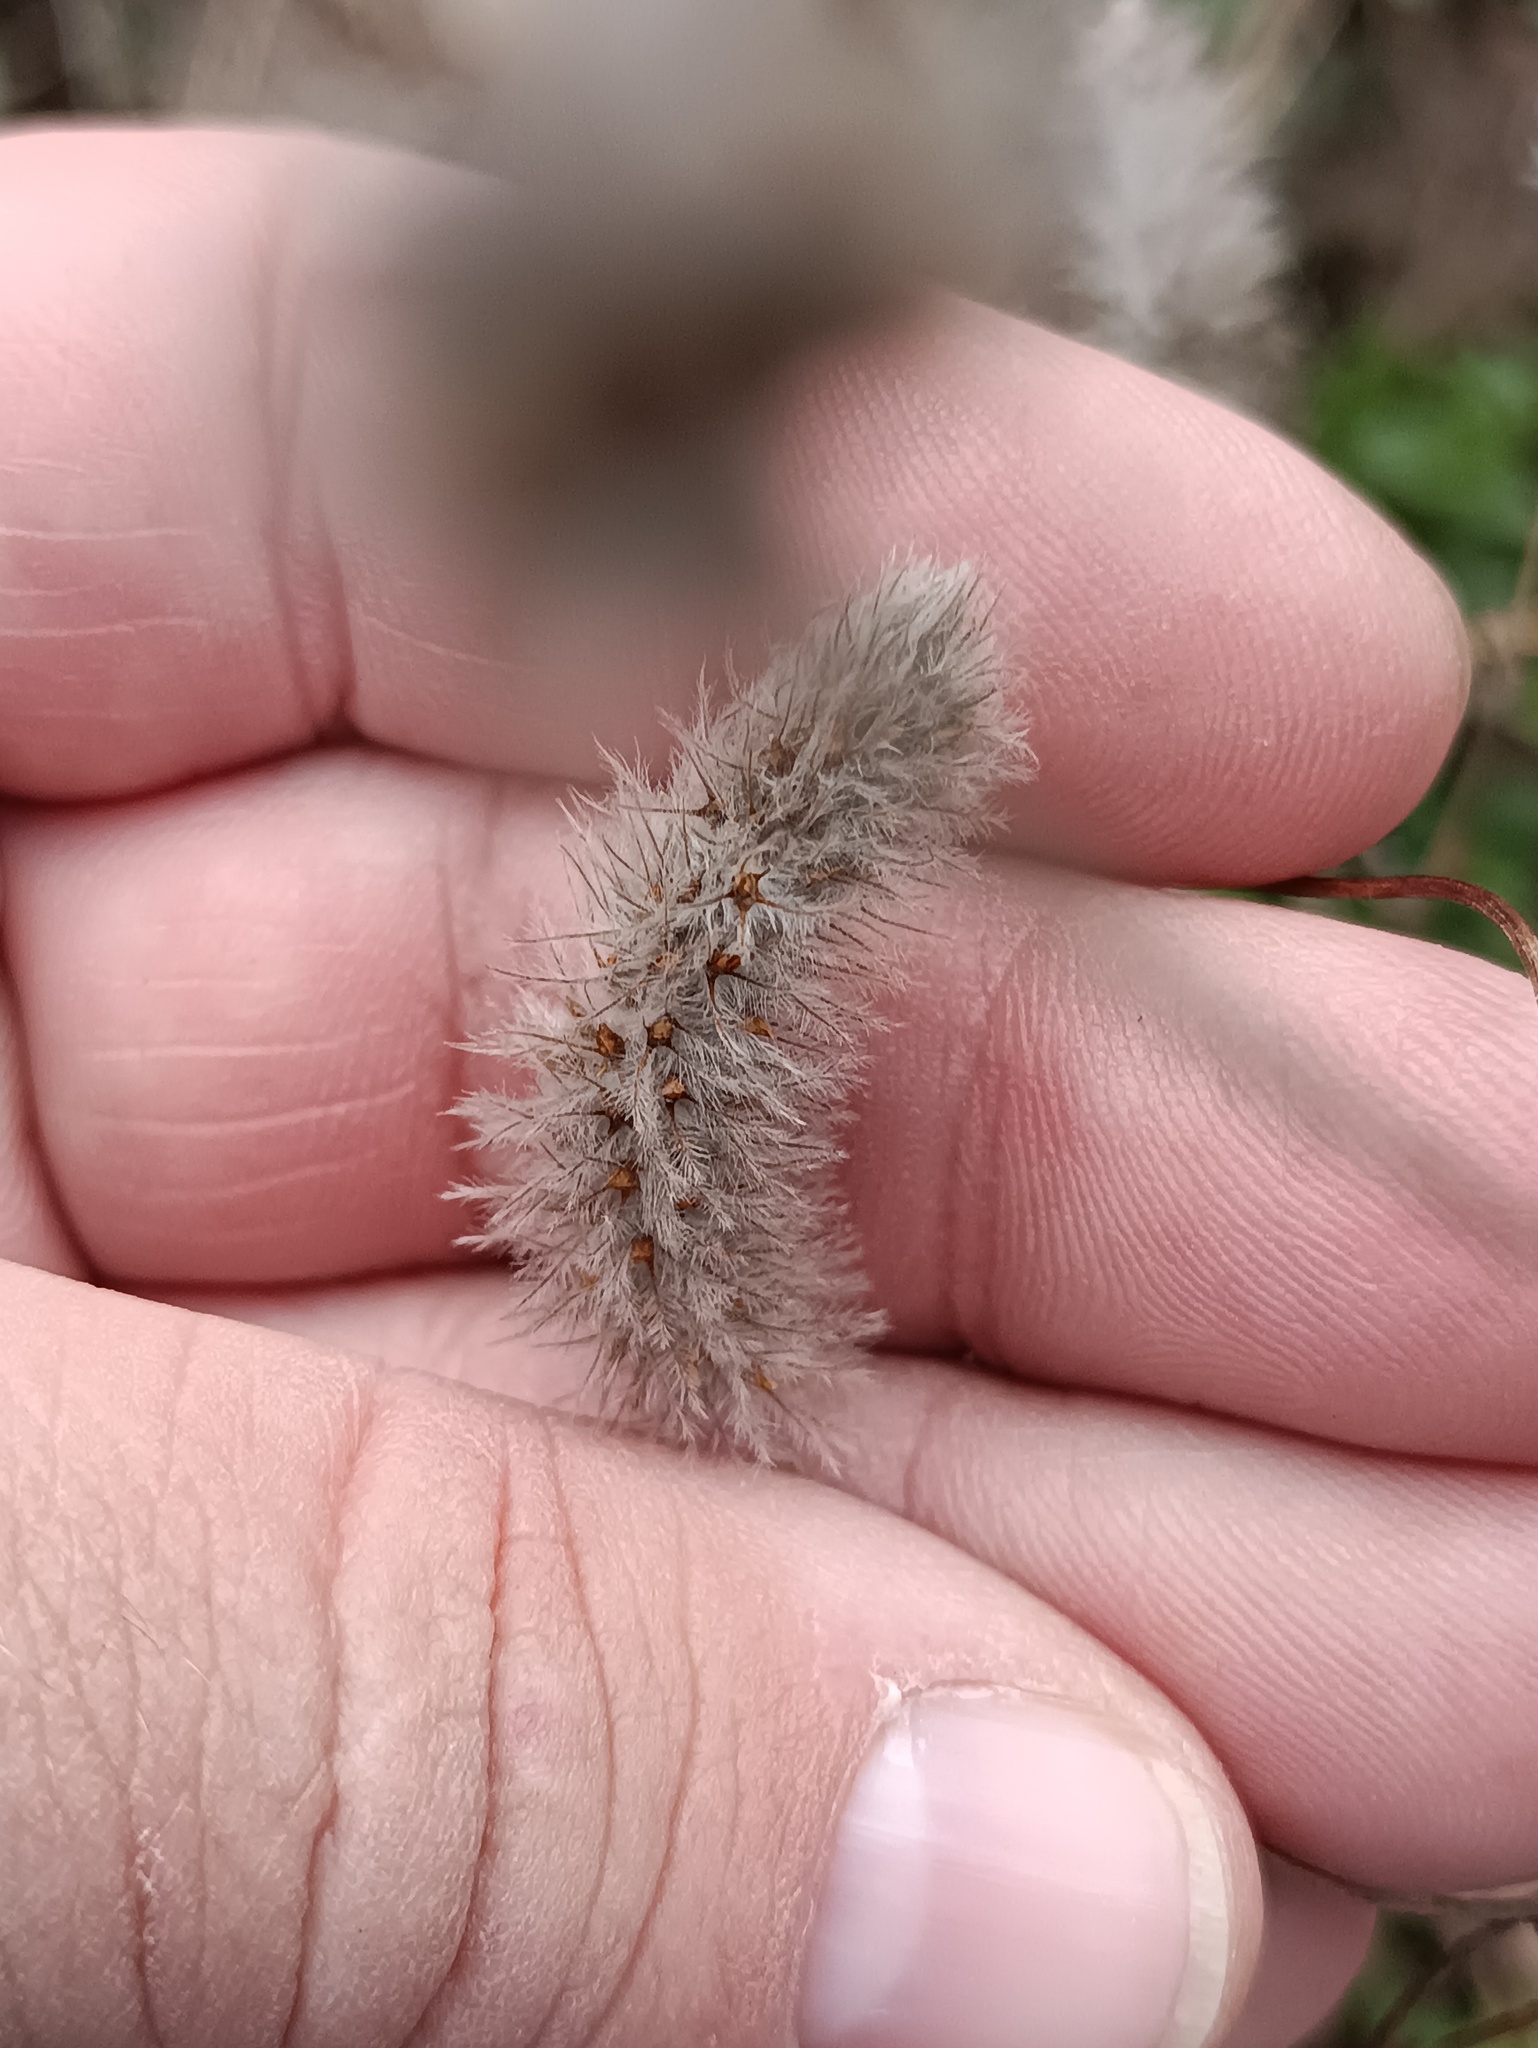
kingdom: Plantae
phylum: Tracheophyta
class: Magnoliopsida
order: Fabales
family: Fabaceae
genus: Trifolium
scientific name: Trifolium arvense
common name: Hare's-foot clover
